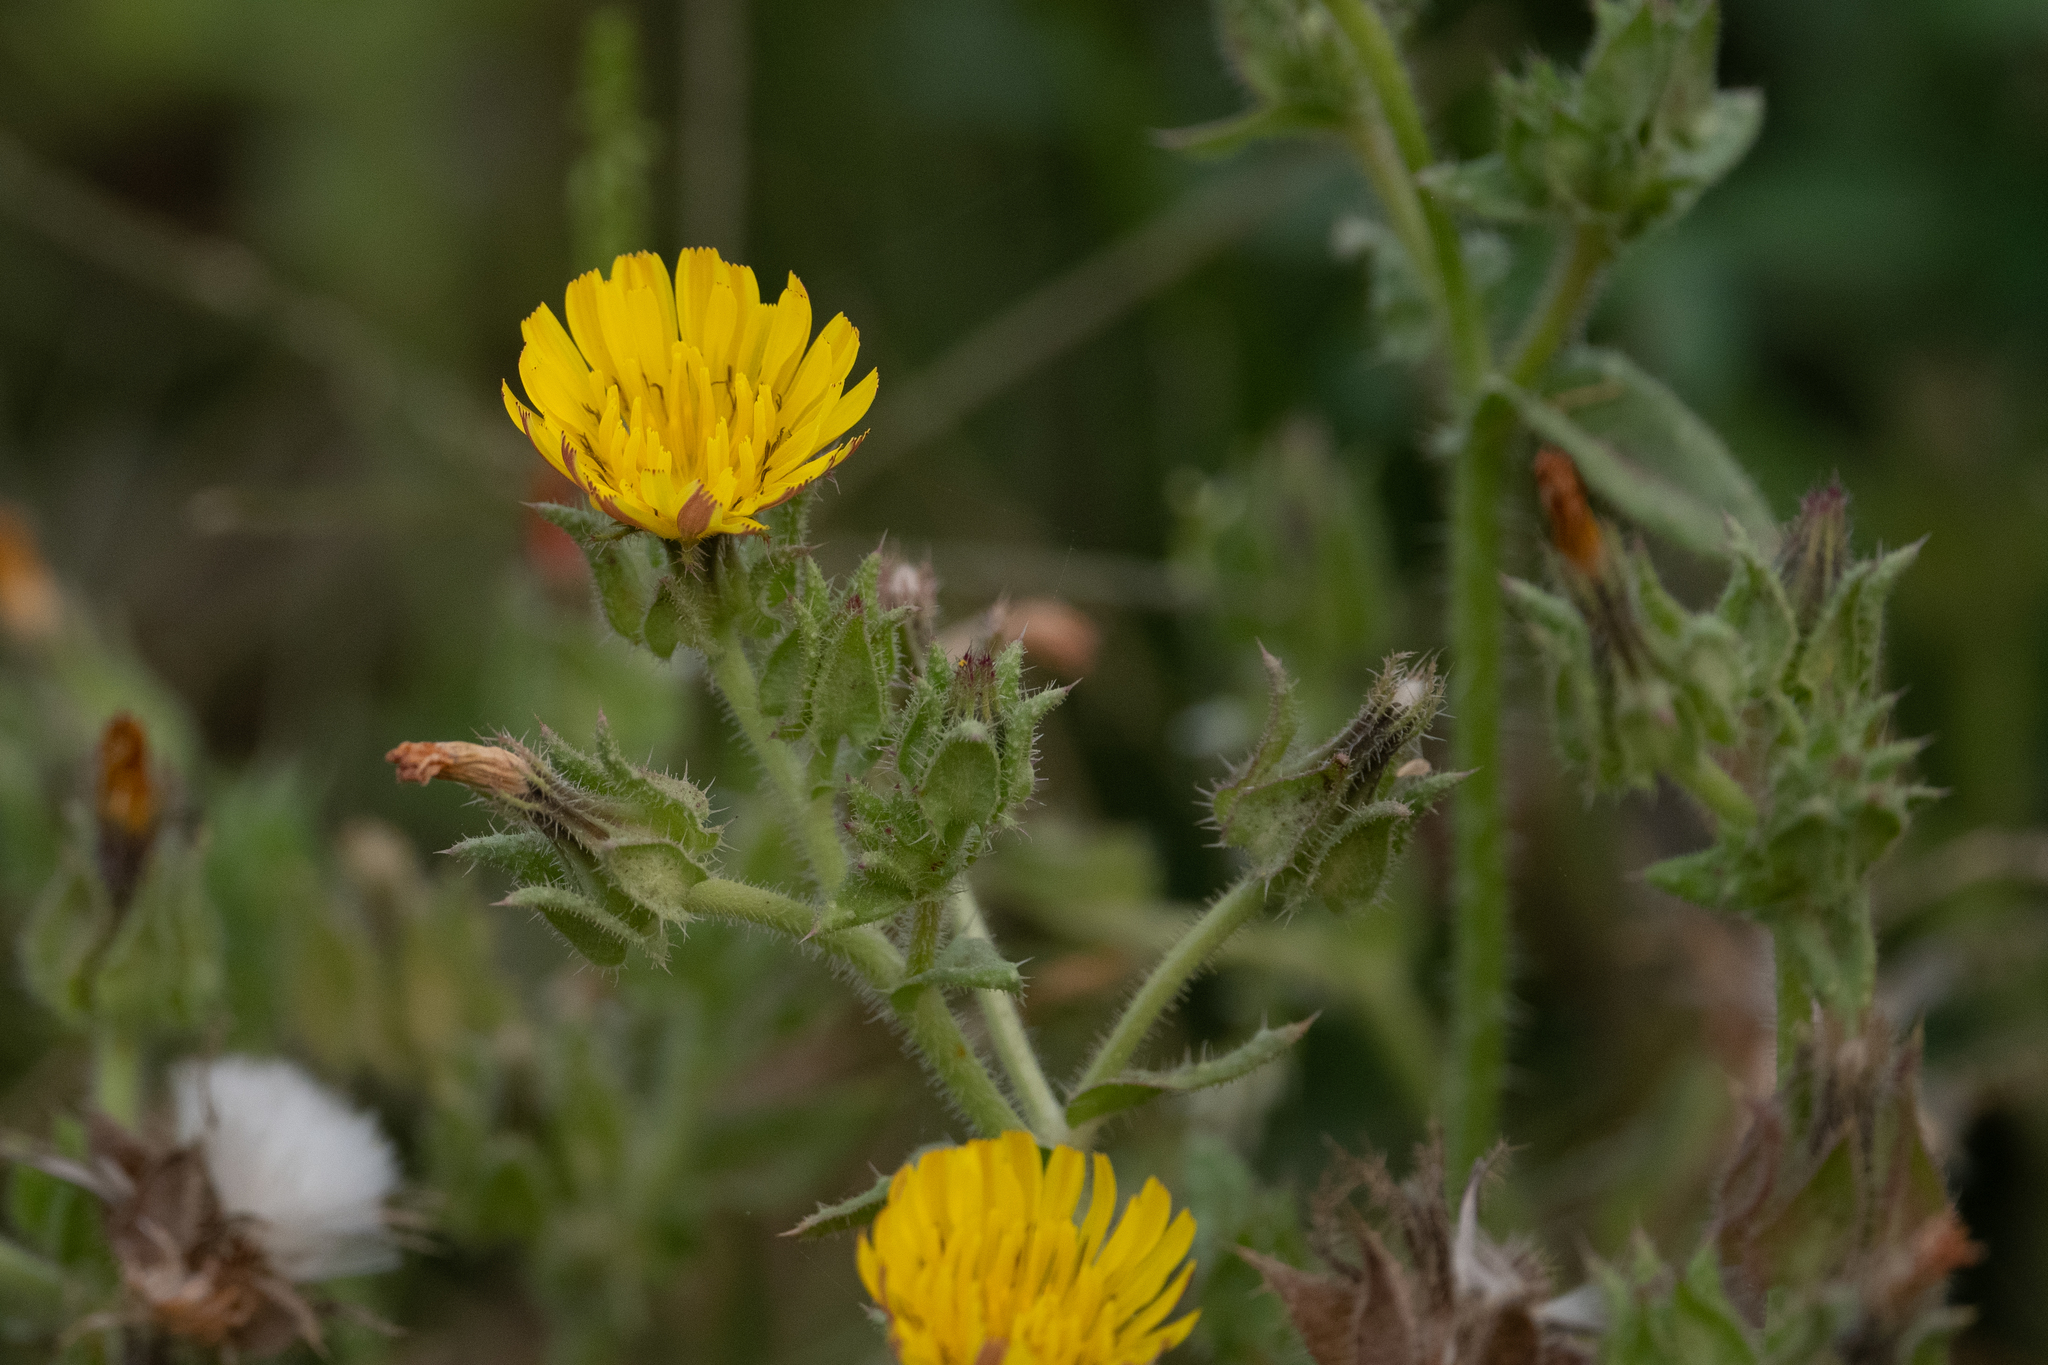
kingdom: Plantae
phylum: Tracheophyta
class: Magnoliopsida
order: Asterales
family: Asteraceae
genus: Helminthotheca
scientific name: Helminthotheca echioides
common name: Ox-tongue
